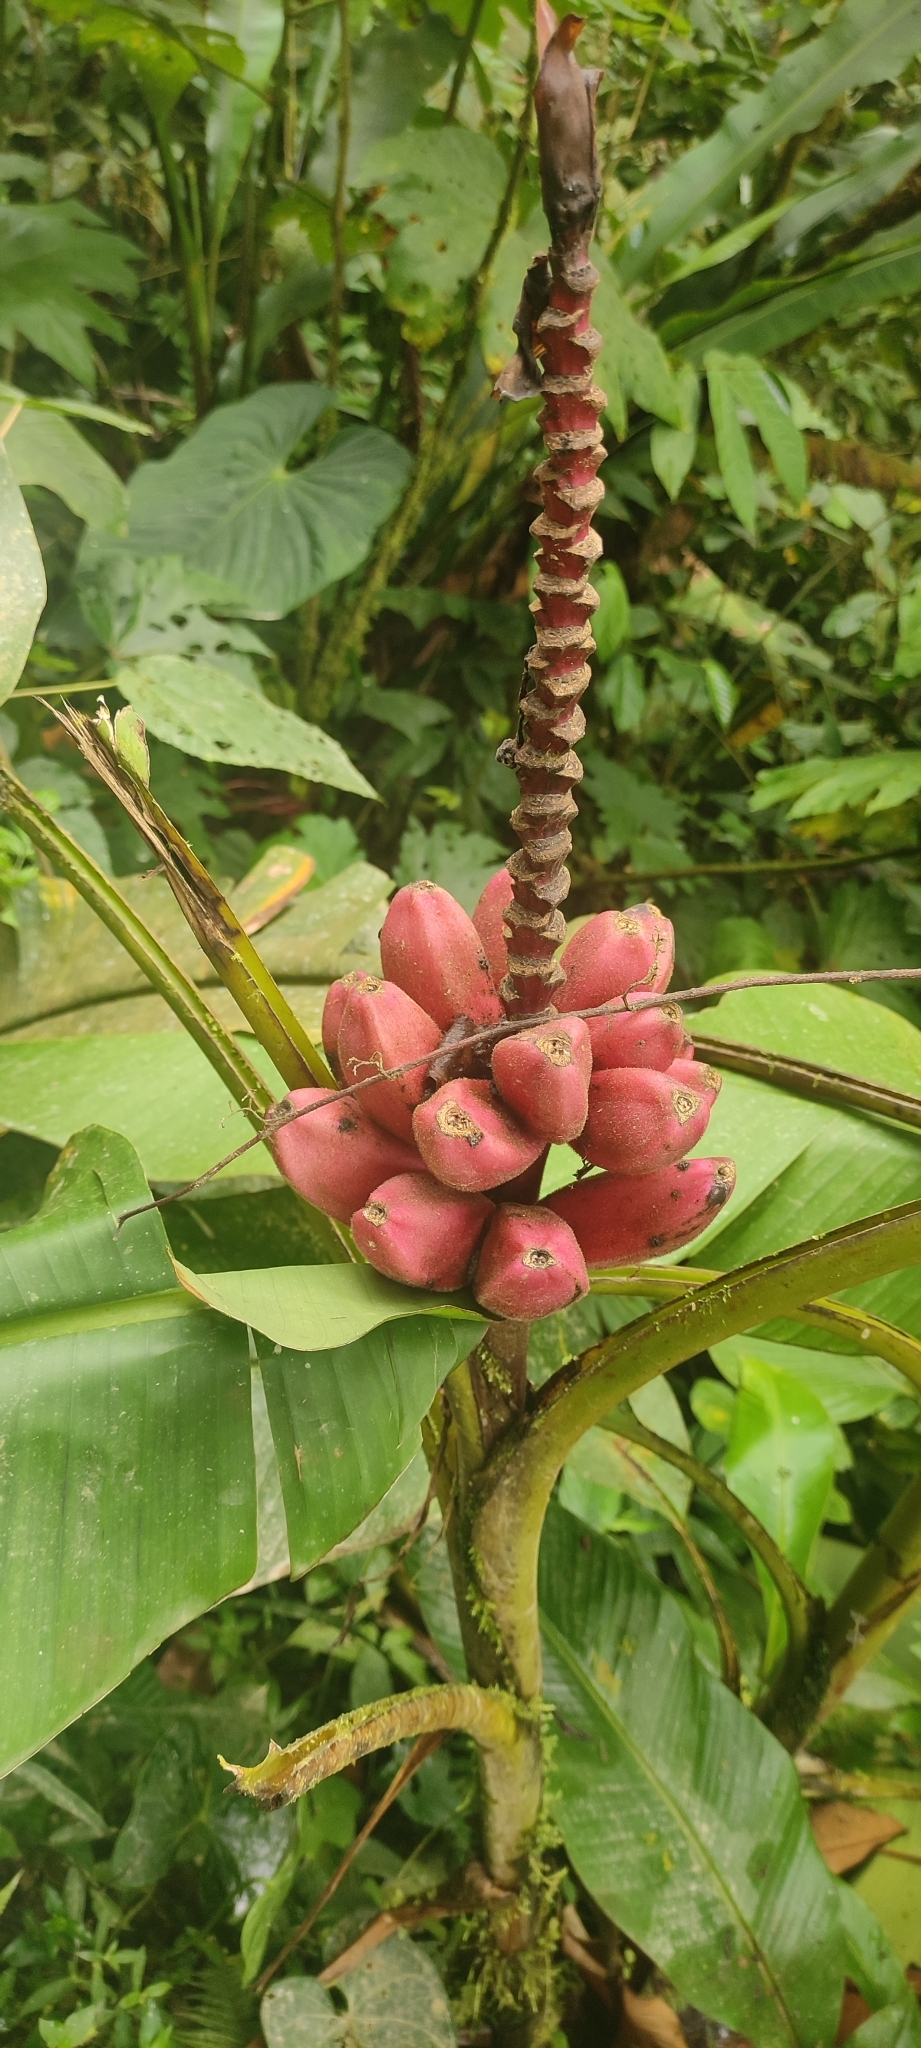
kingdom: Plantae
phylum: Tracheophyta
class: Liliopsida
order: Zingiberales
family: Musaceae
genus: Musa
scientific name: Musa velutina
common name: Pink velvet banana
